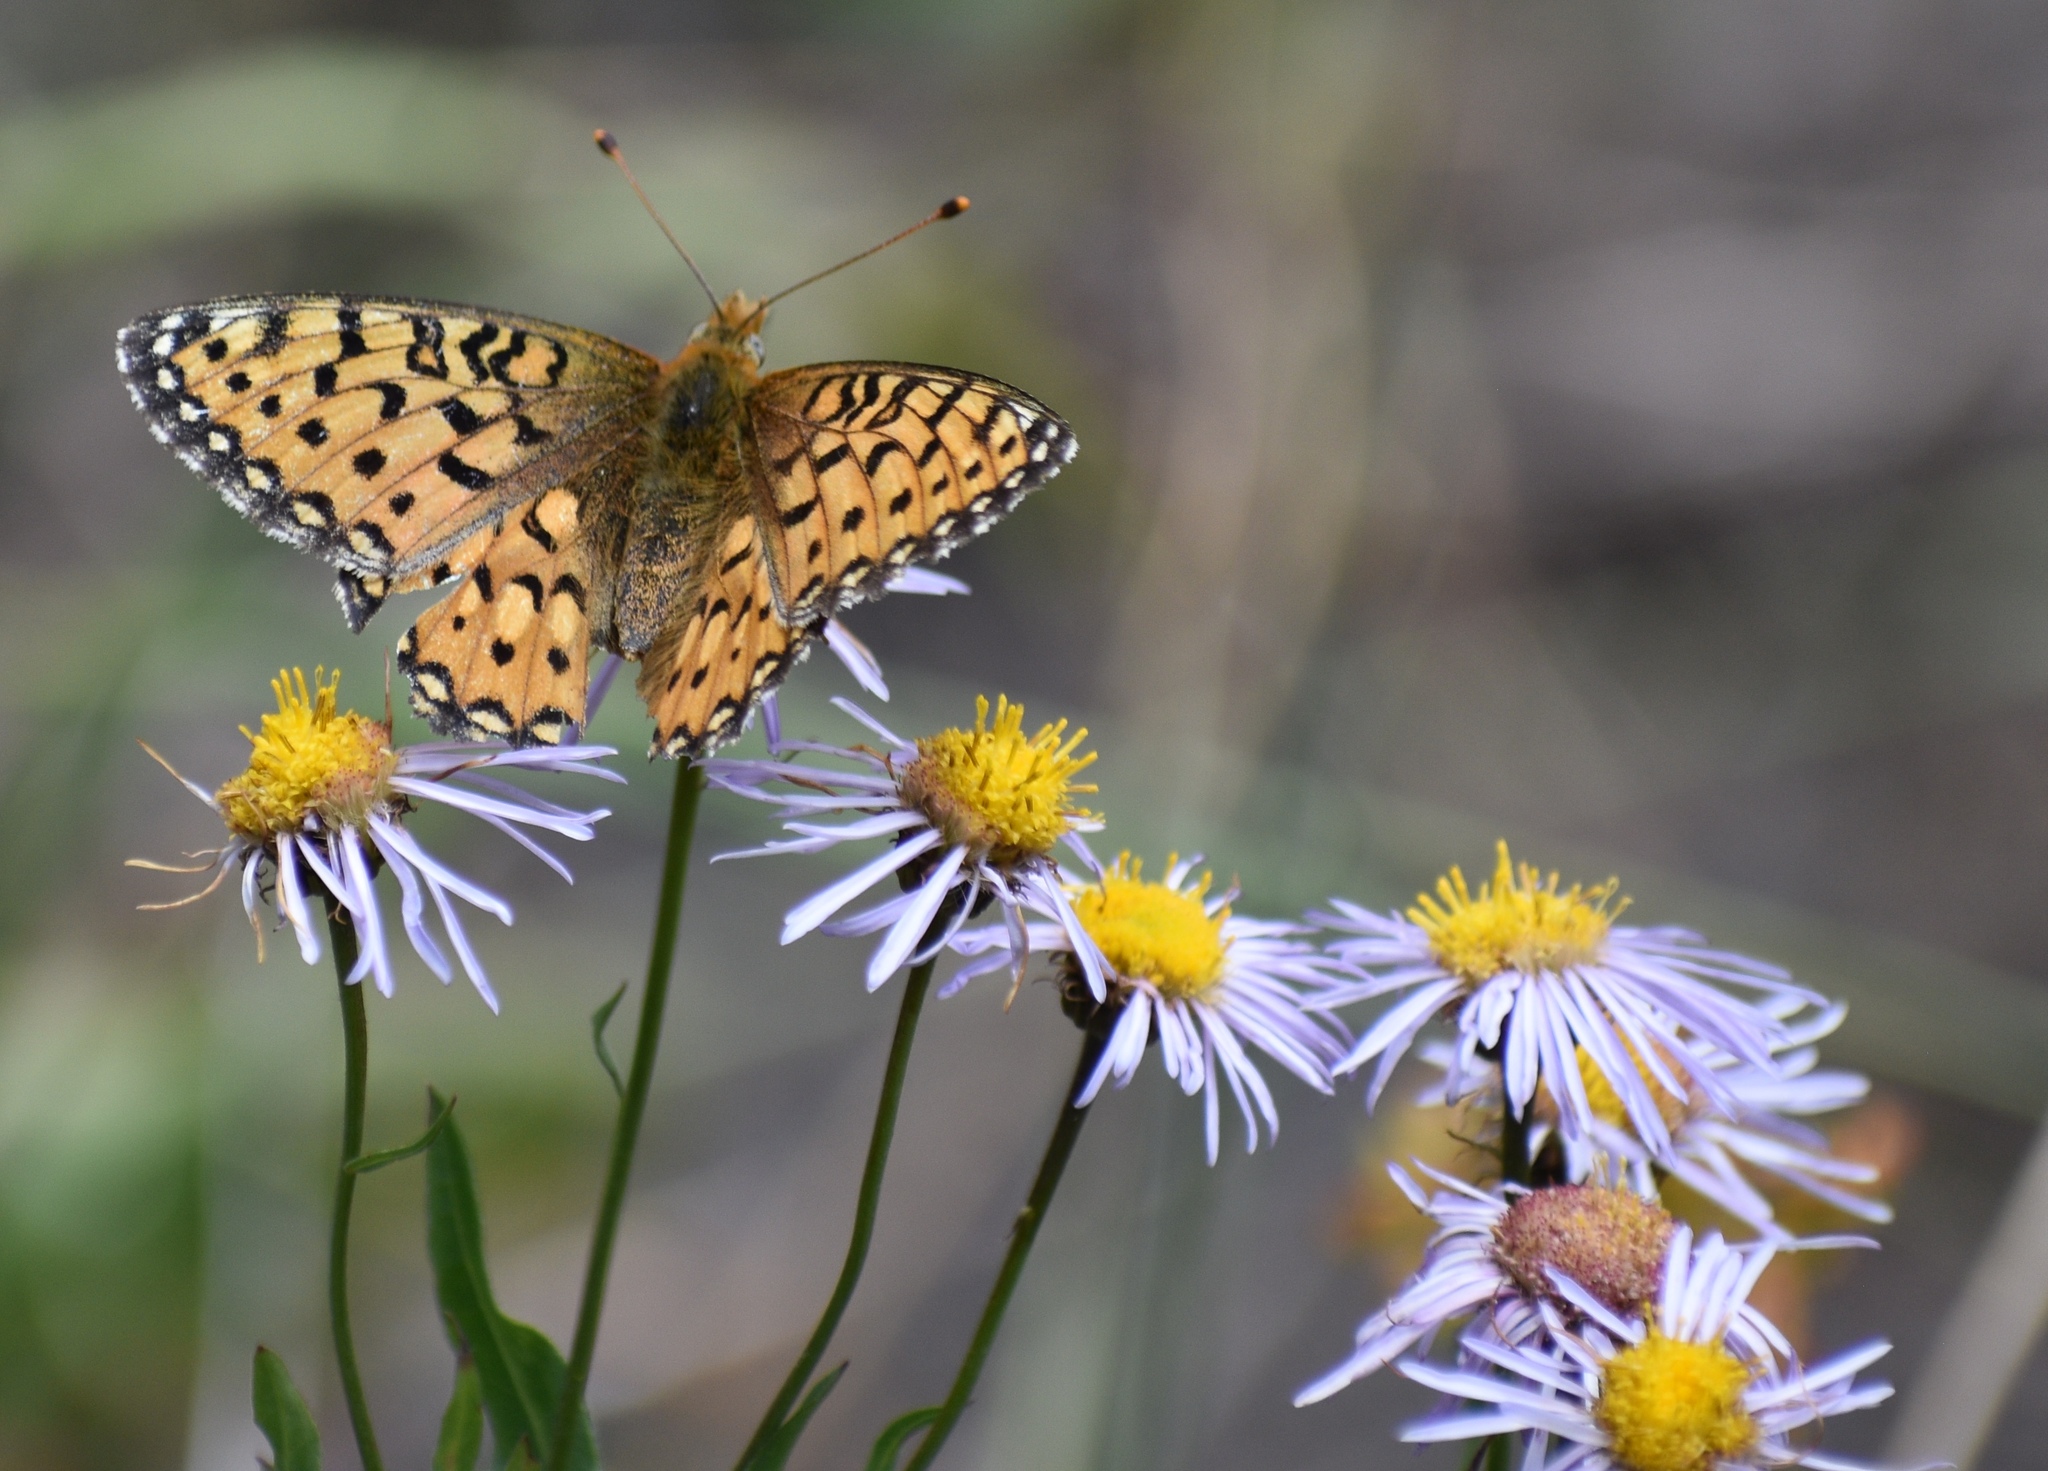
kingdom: Animalia
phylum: Arthropoda
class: Insecta
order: Lepidoptera
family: Nymphalidae
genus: Speyeria
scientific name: Speyeria mormonia
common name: Mormon fritillary
